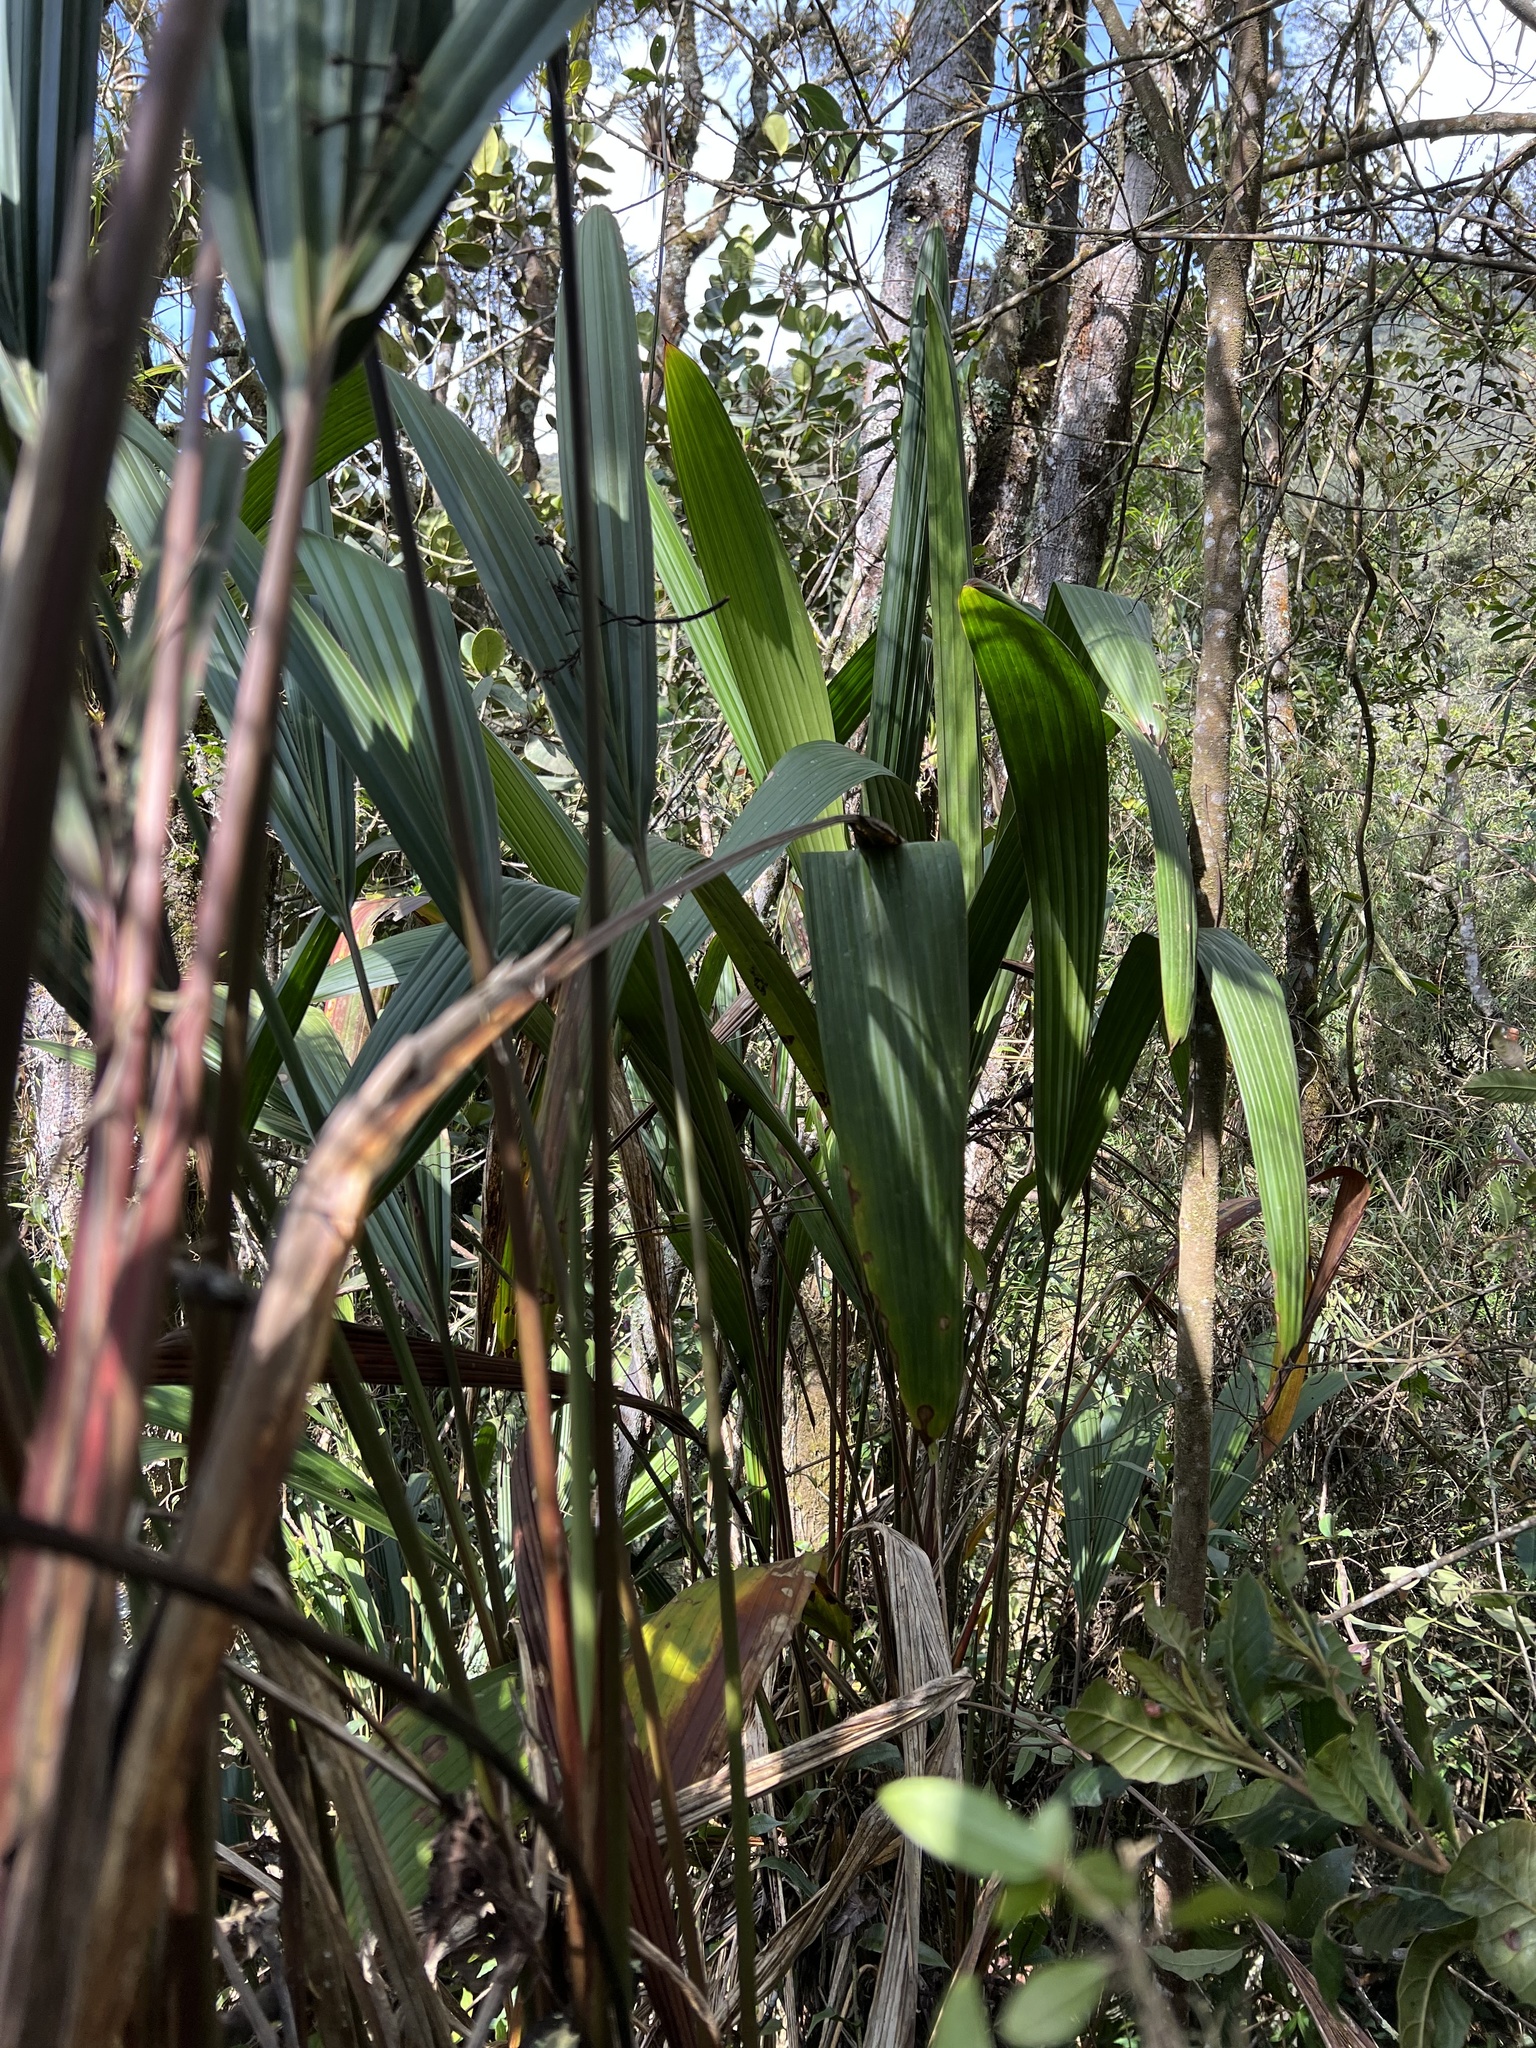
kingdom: Plantae
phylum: Tracheophyta
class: Liliopsida
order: Pandanales
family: Cyclanthaceae
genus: Sphaeradenia
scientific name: Sphaeradenia laucheana
